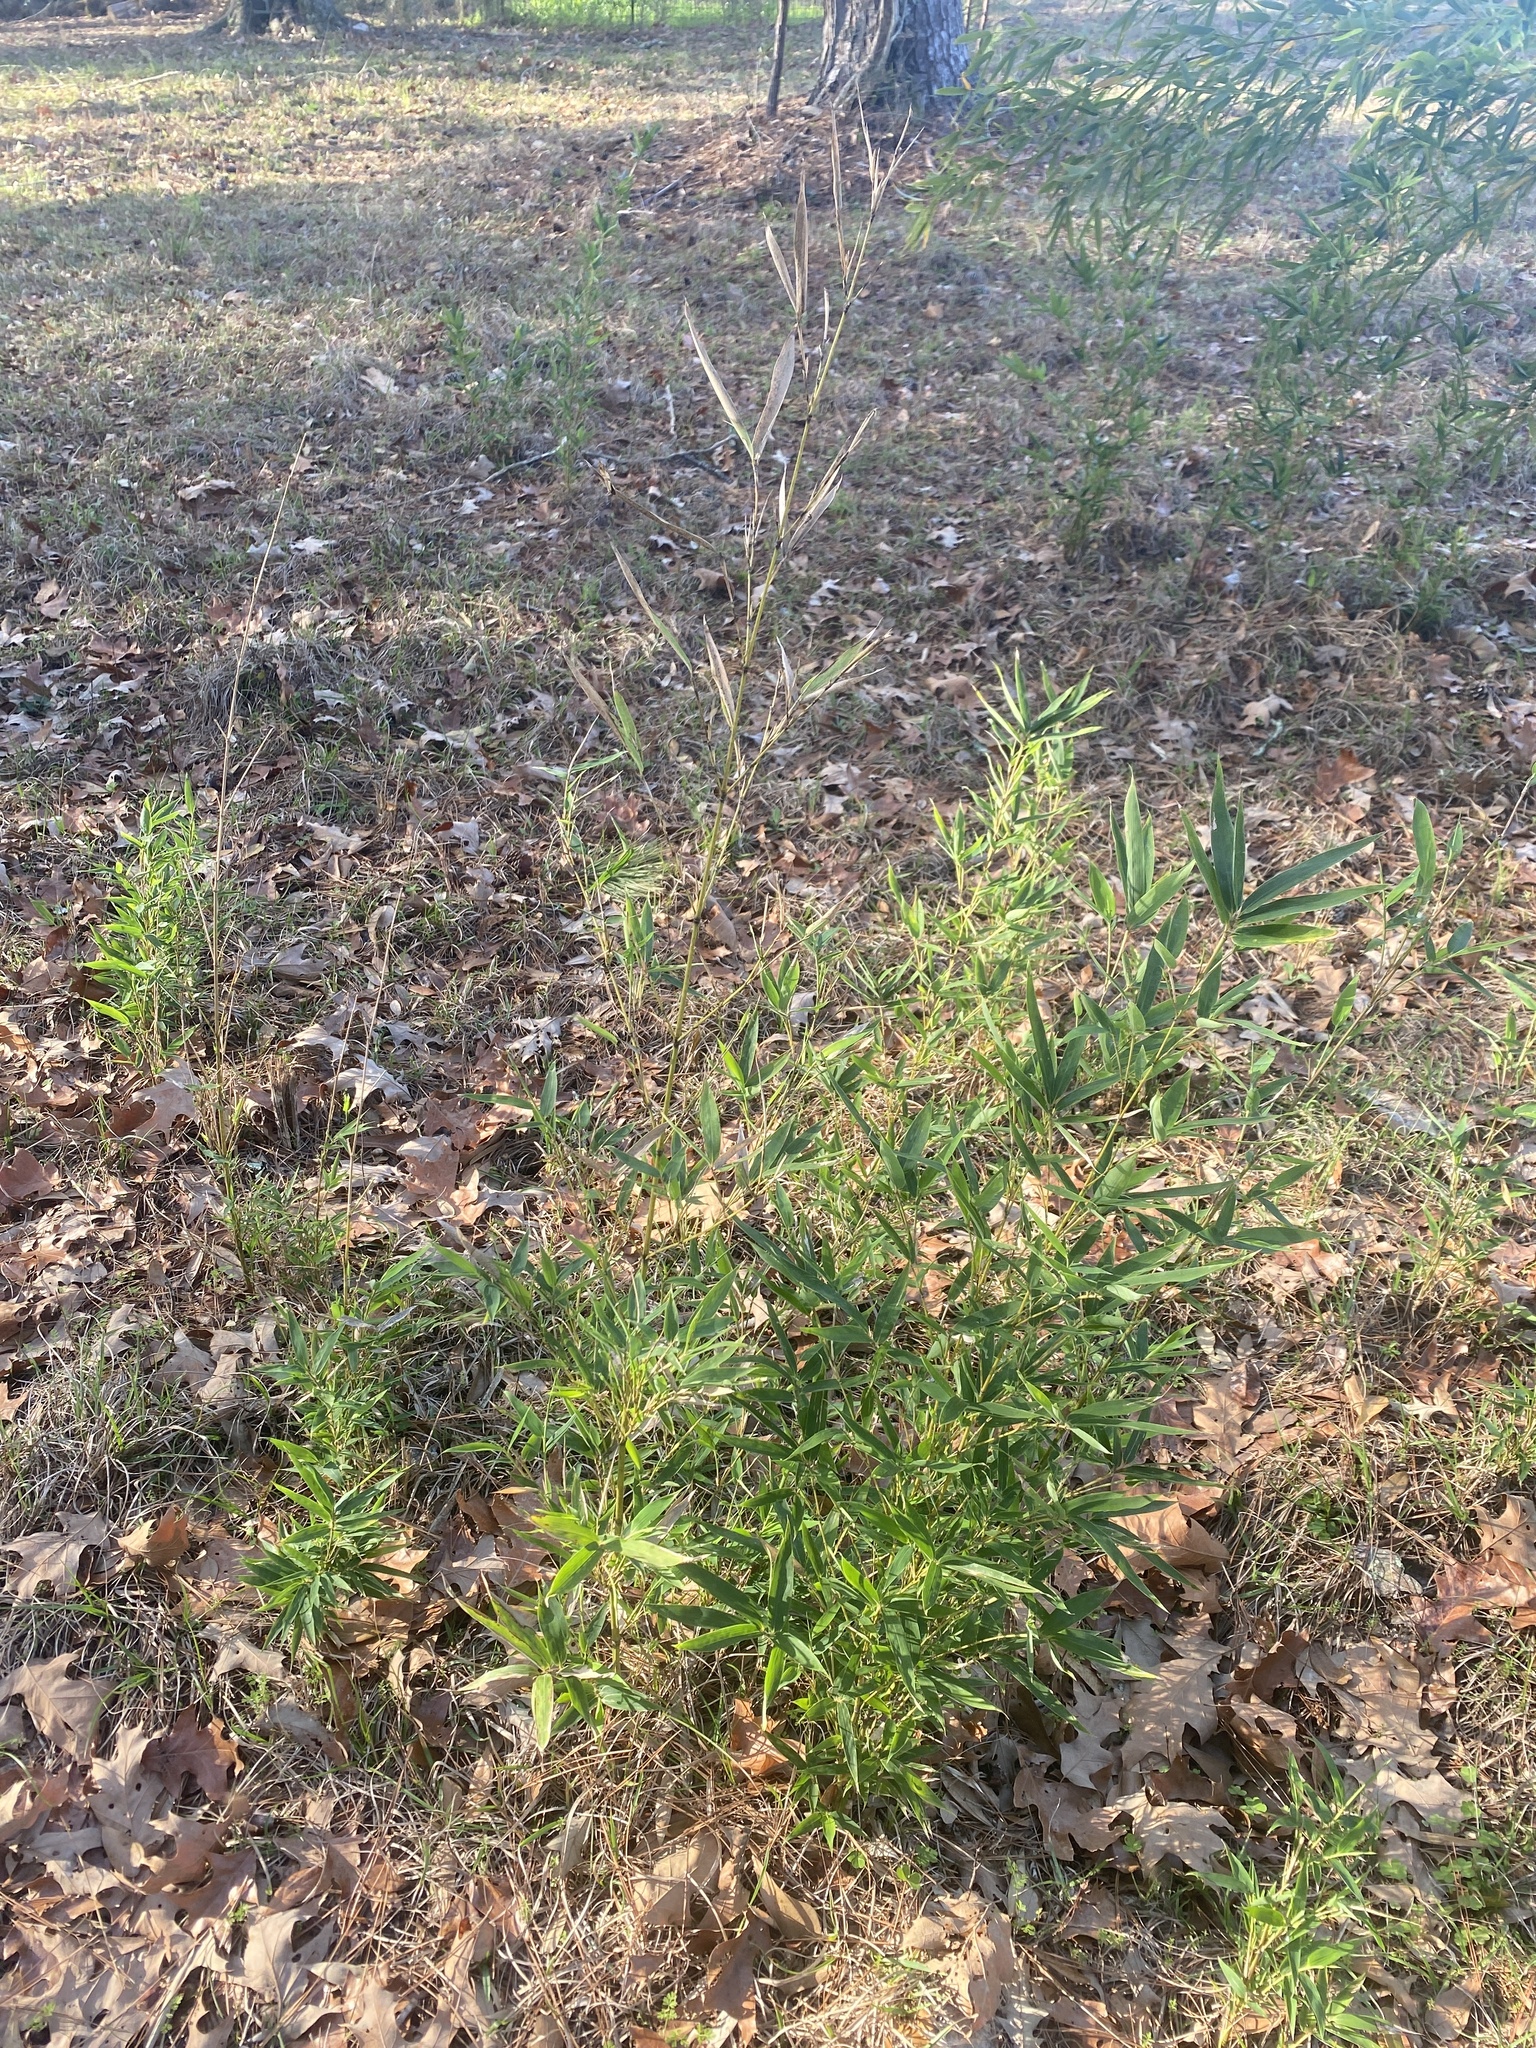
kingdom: Plantae
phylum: Tracheophyta
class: Liliopsida
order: Poales
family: Poaceae
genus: Arundinaria
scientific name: Arundinaria gigantea
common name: Giant cane
